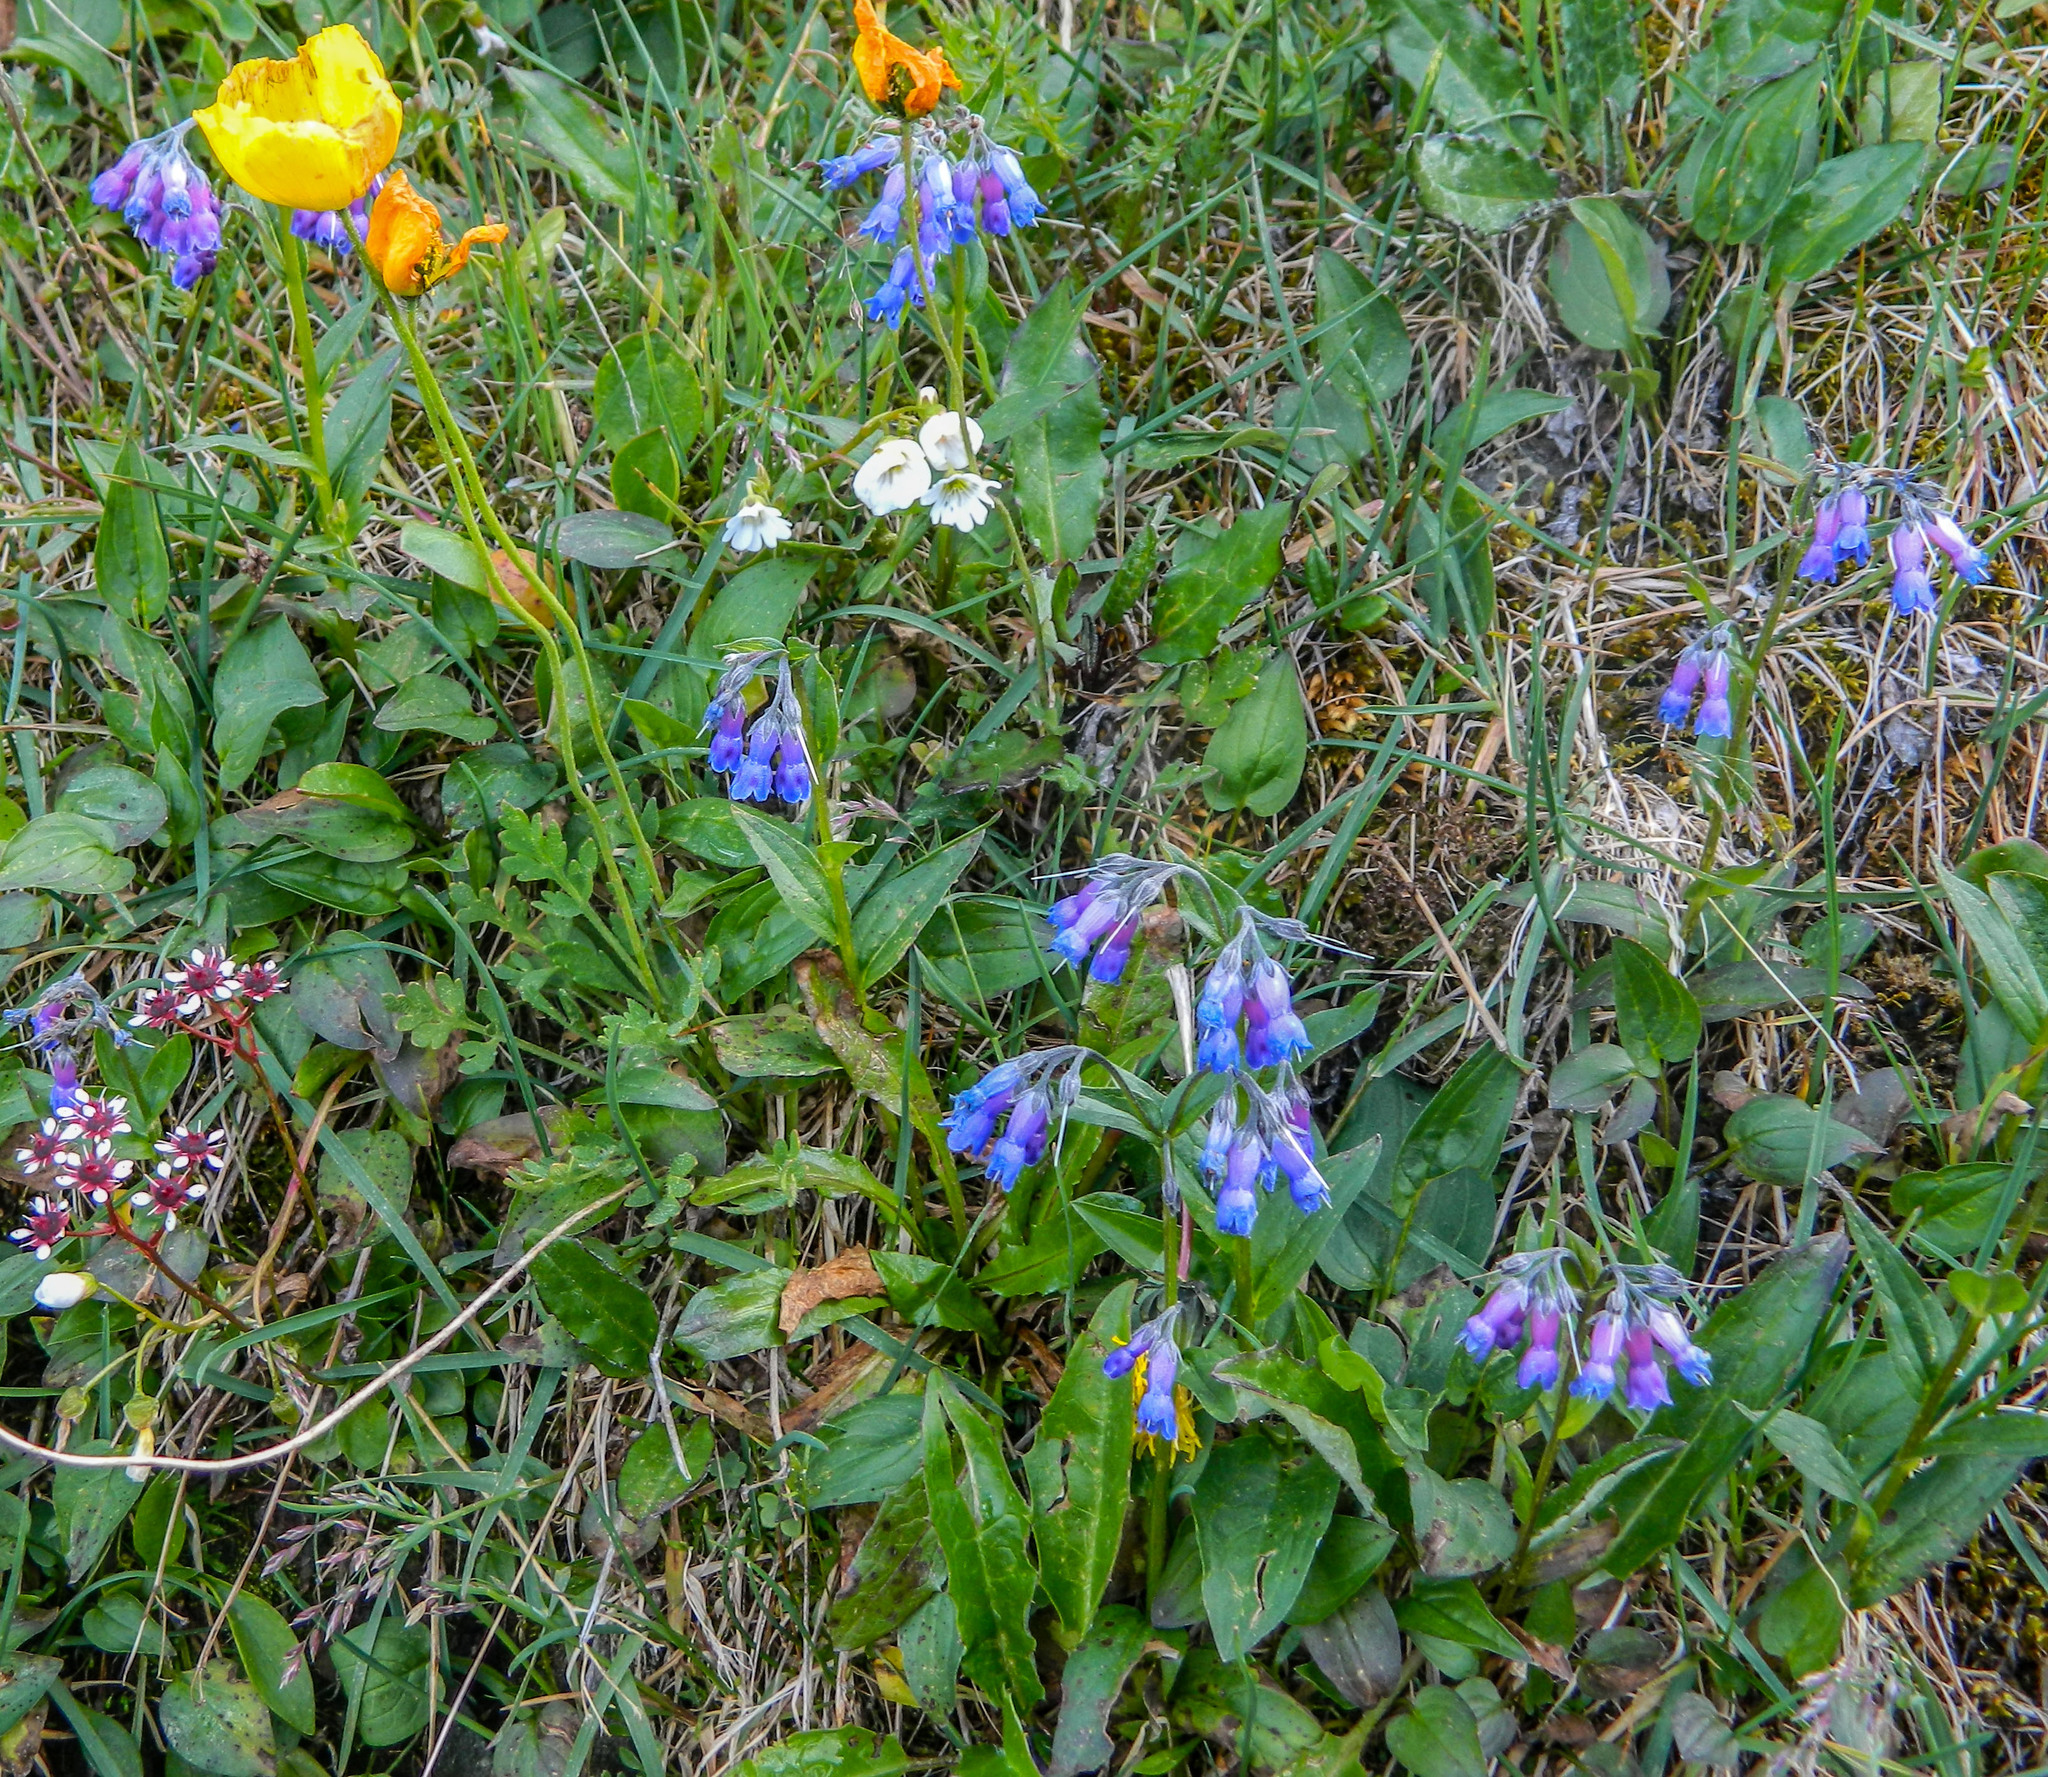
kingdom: Plantae
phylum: Tracheophyta
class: Magnoliopsida
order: Boraginales
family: Boraginaceae
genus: Mertensia
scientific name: Mertensia stylosa
